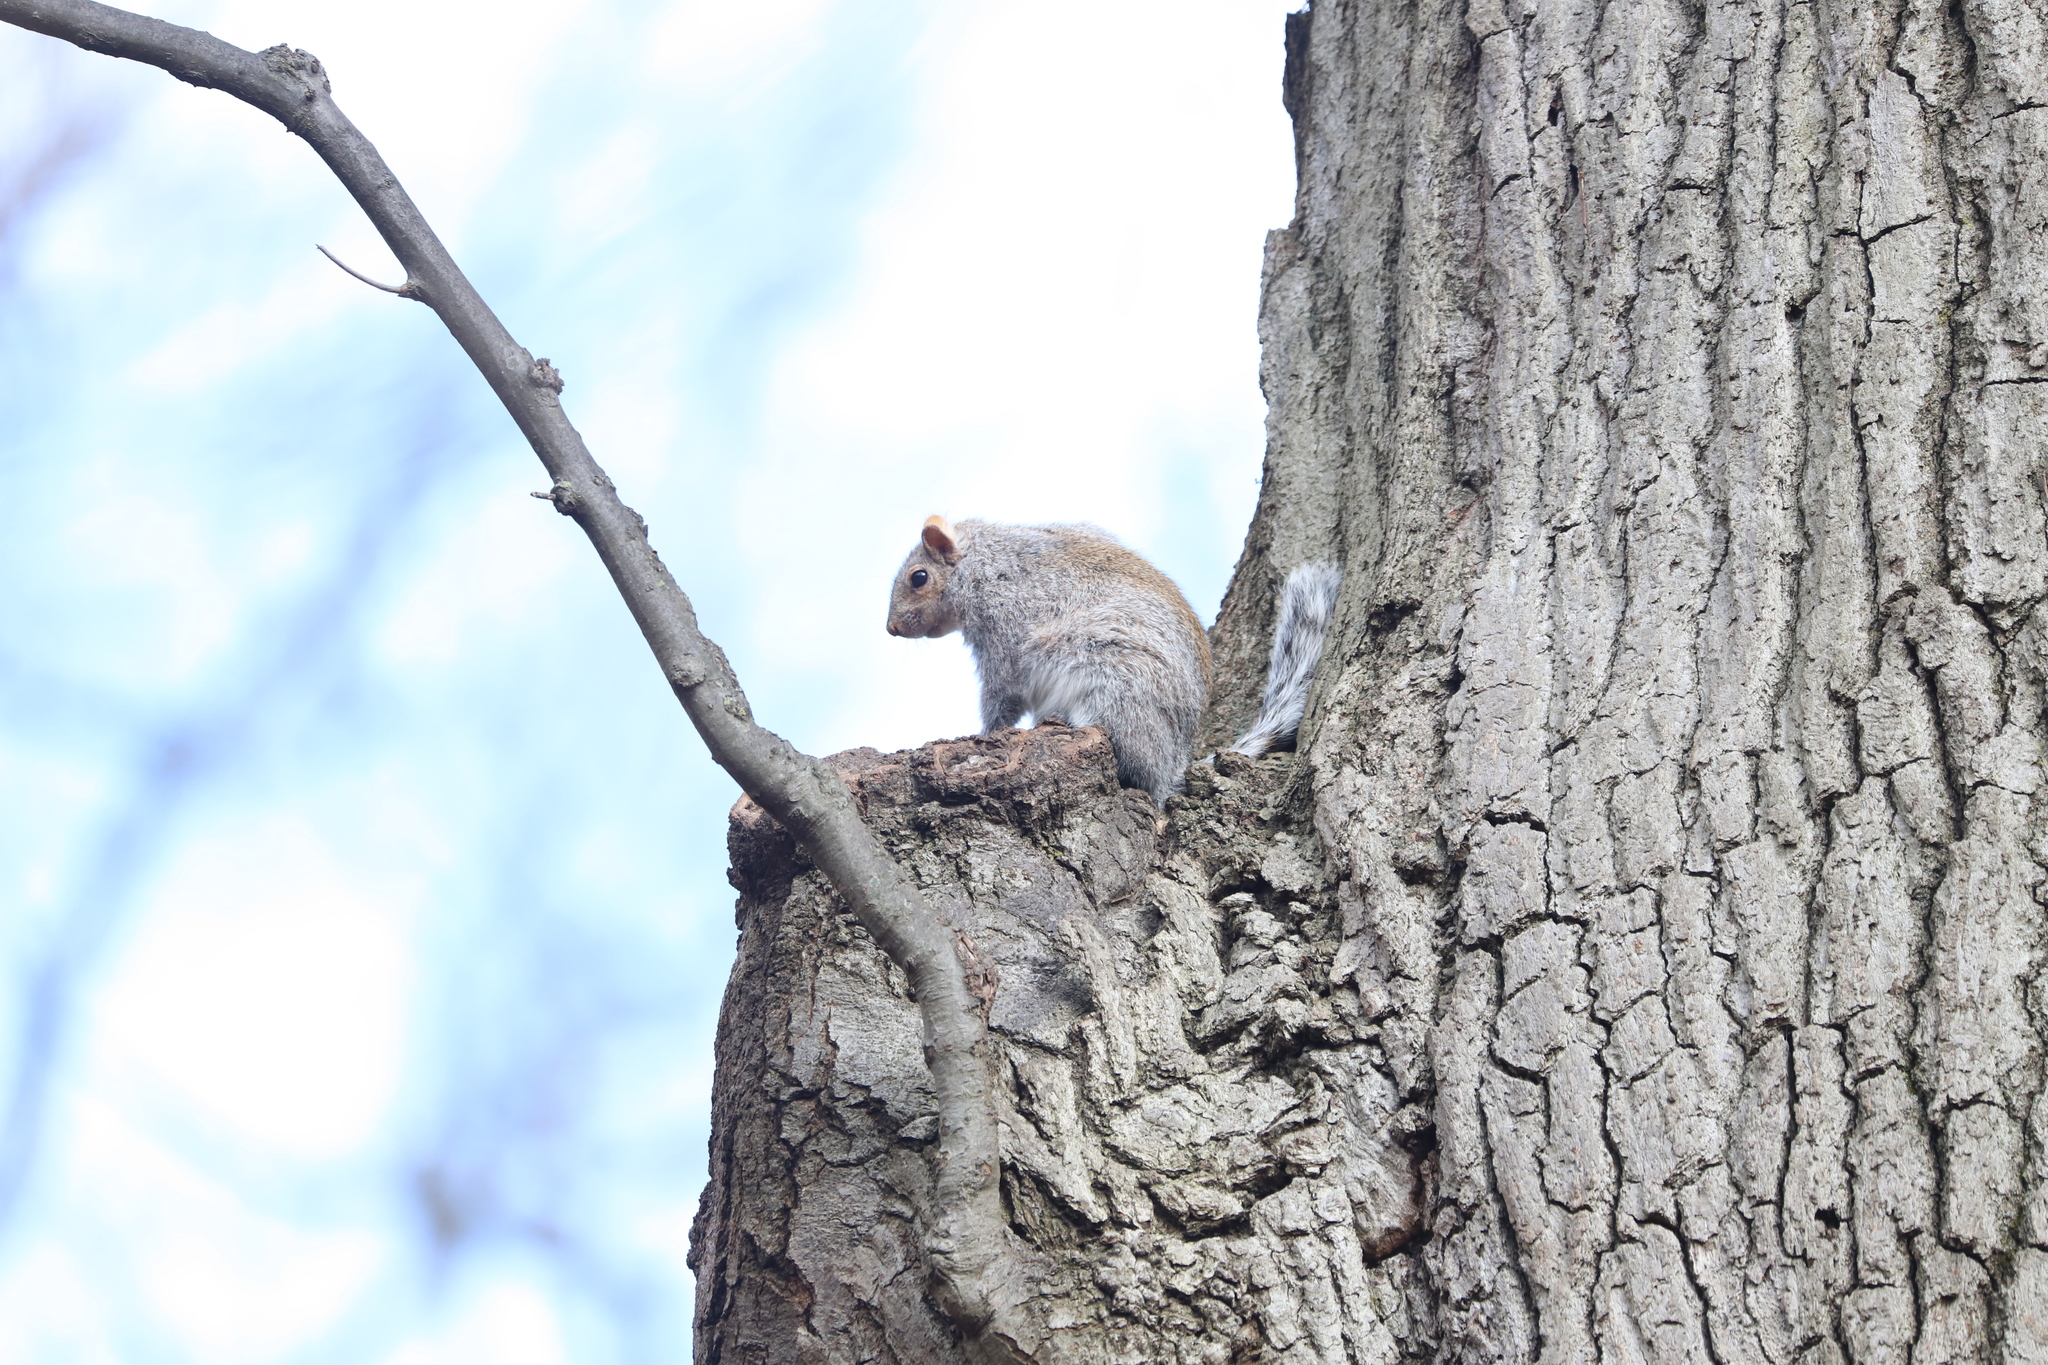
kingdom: Animalia
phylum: Chordata
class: Mammalia
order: Rodentia
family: Sciuridae
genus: Sciurus
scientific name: Sciurus carolinensis
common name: Eastern gray squirrel
